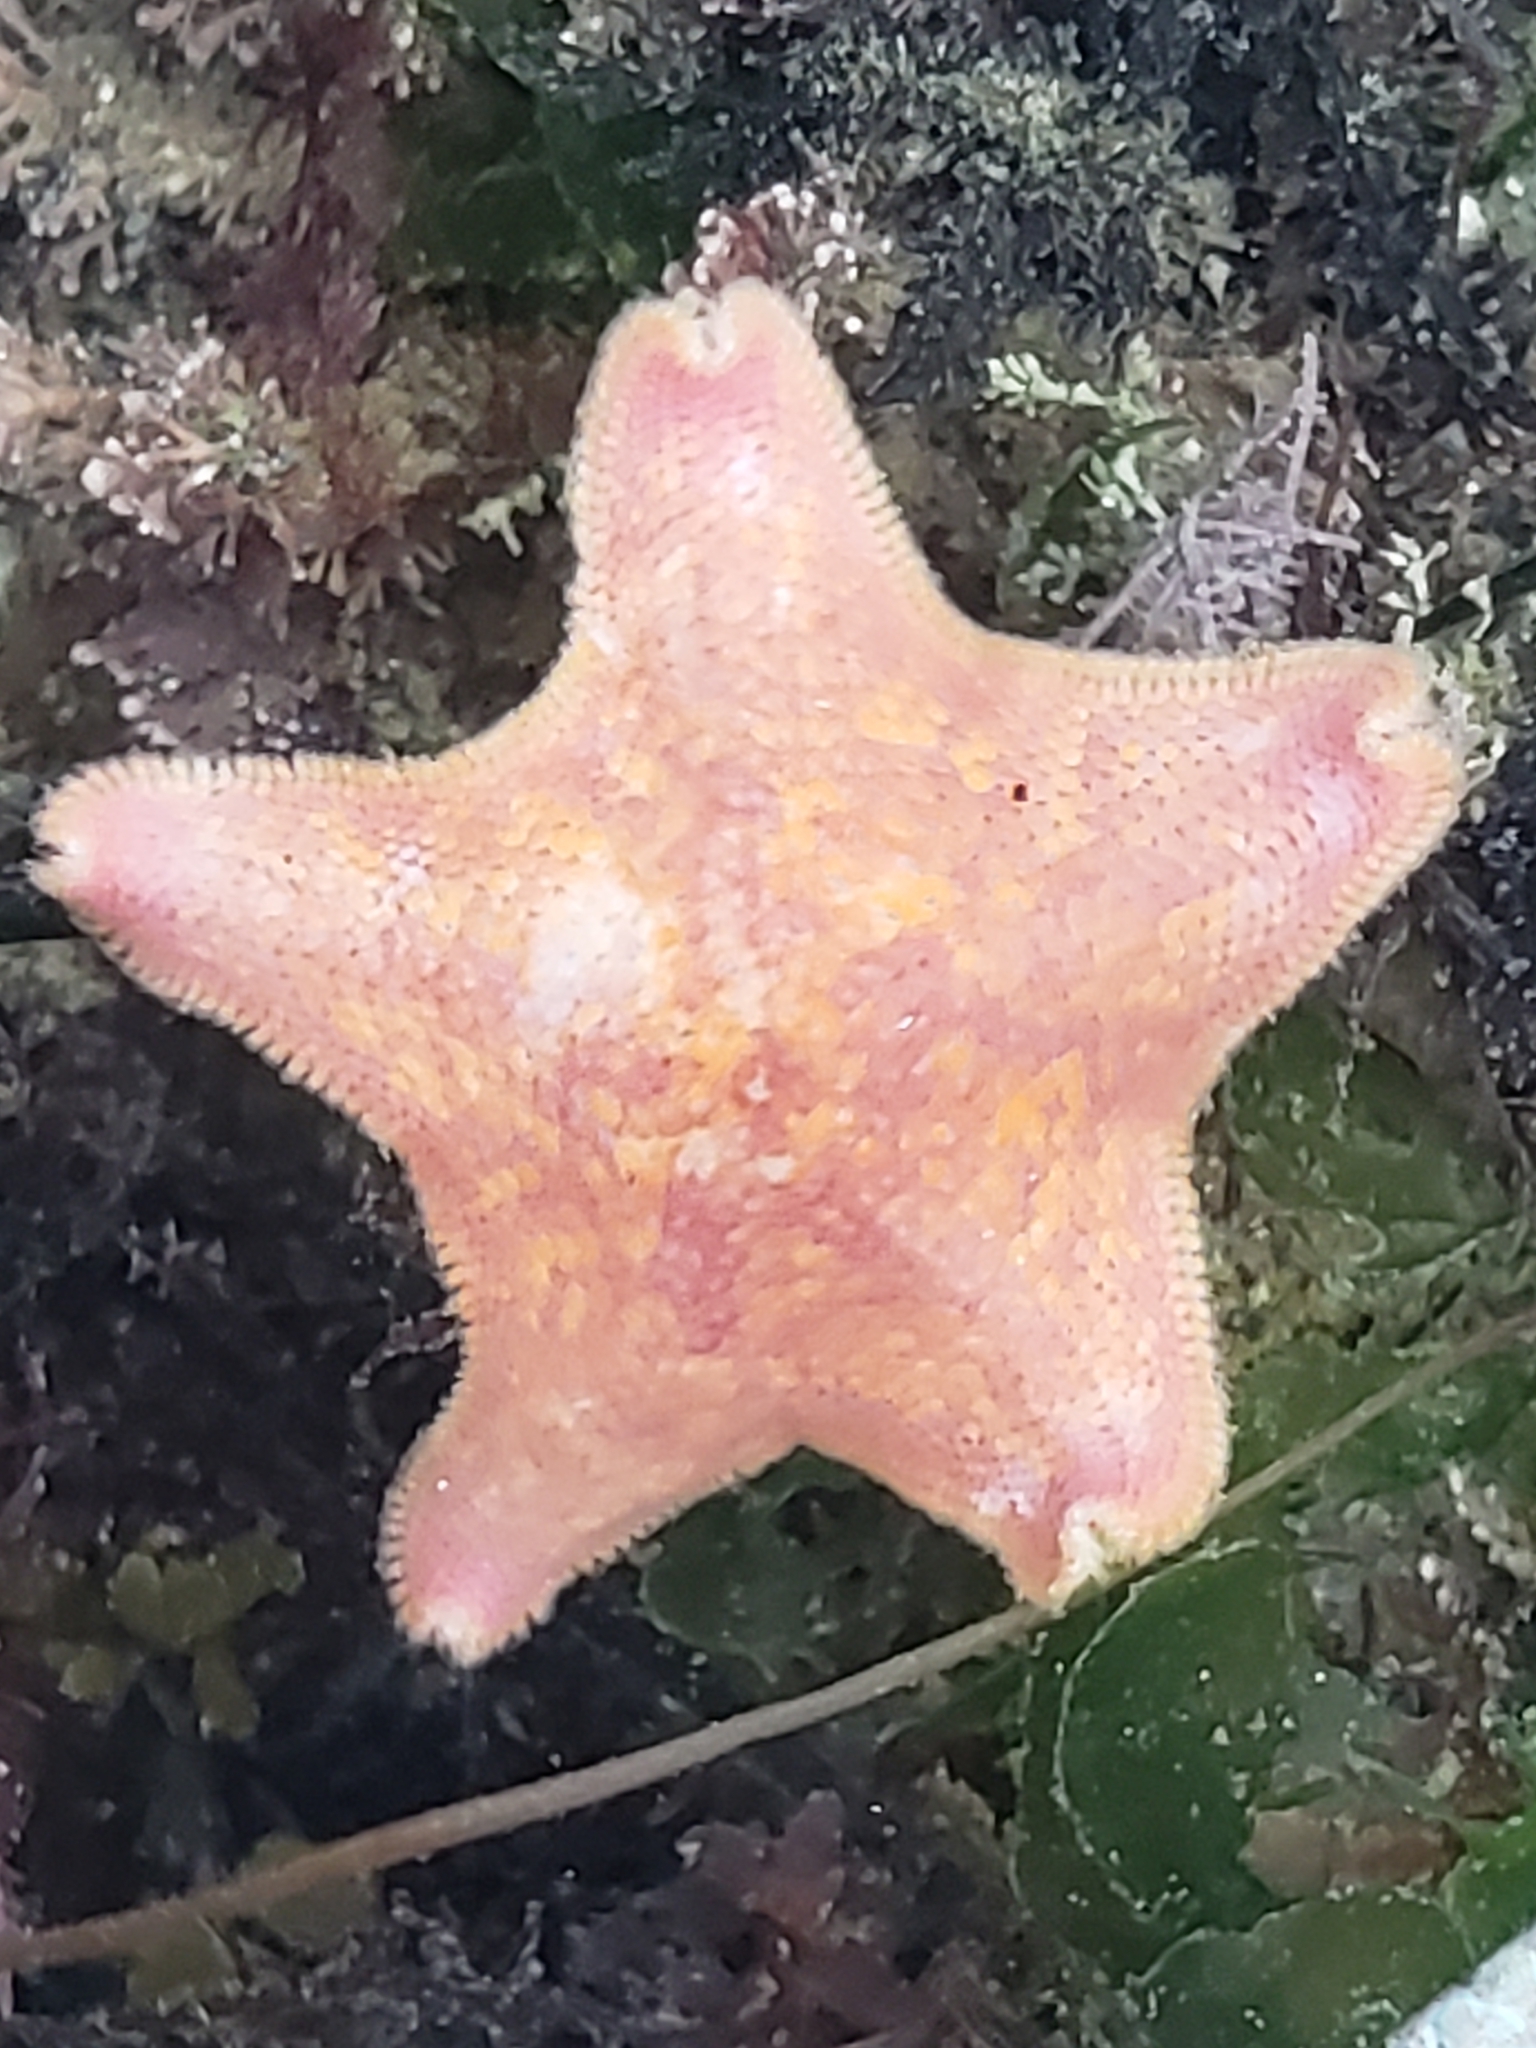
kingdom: Animalia
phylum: Echinodermata
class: Asteroidea
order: Valvatida
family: Asterinidae
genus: Patiria
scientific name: Patiria miniata
